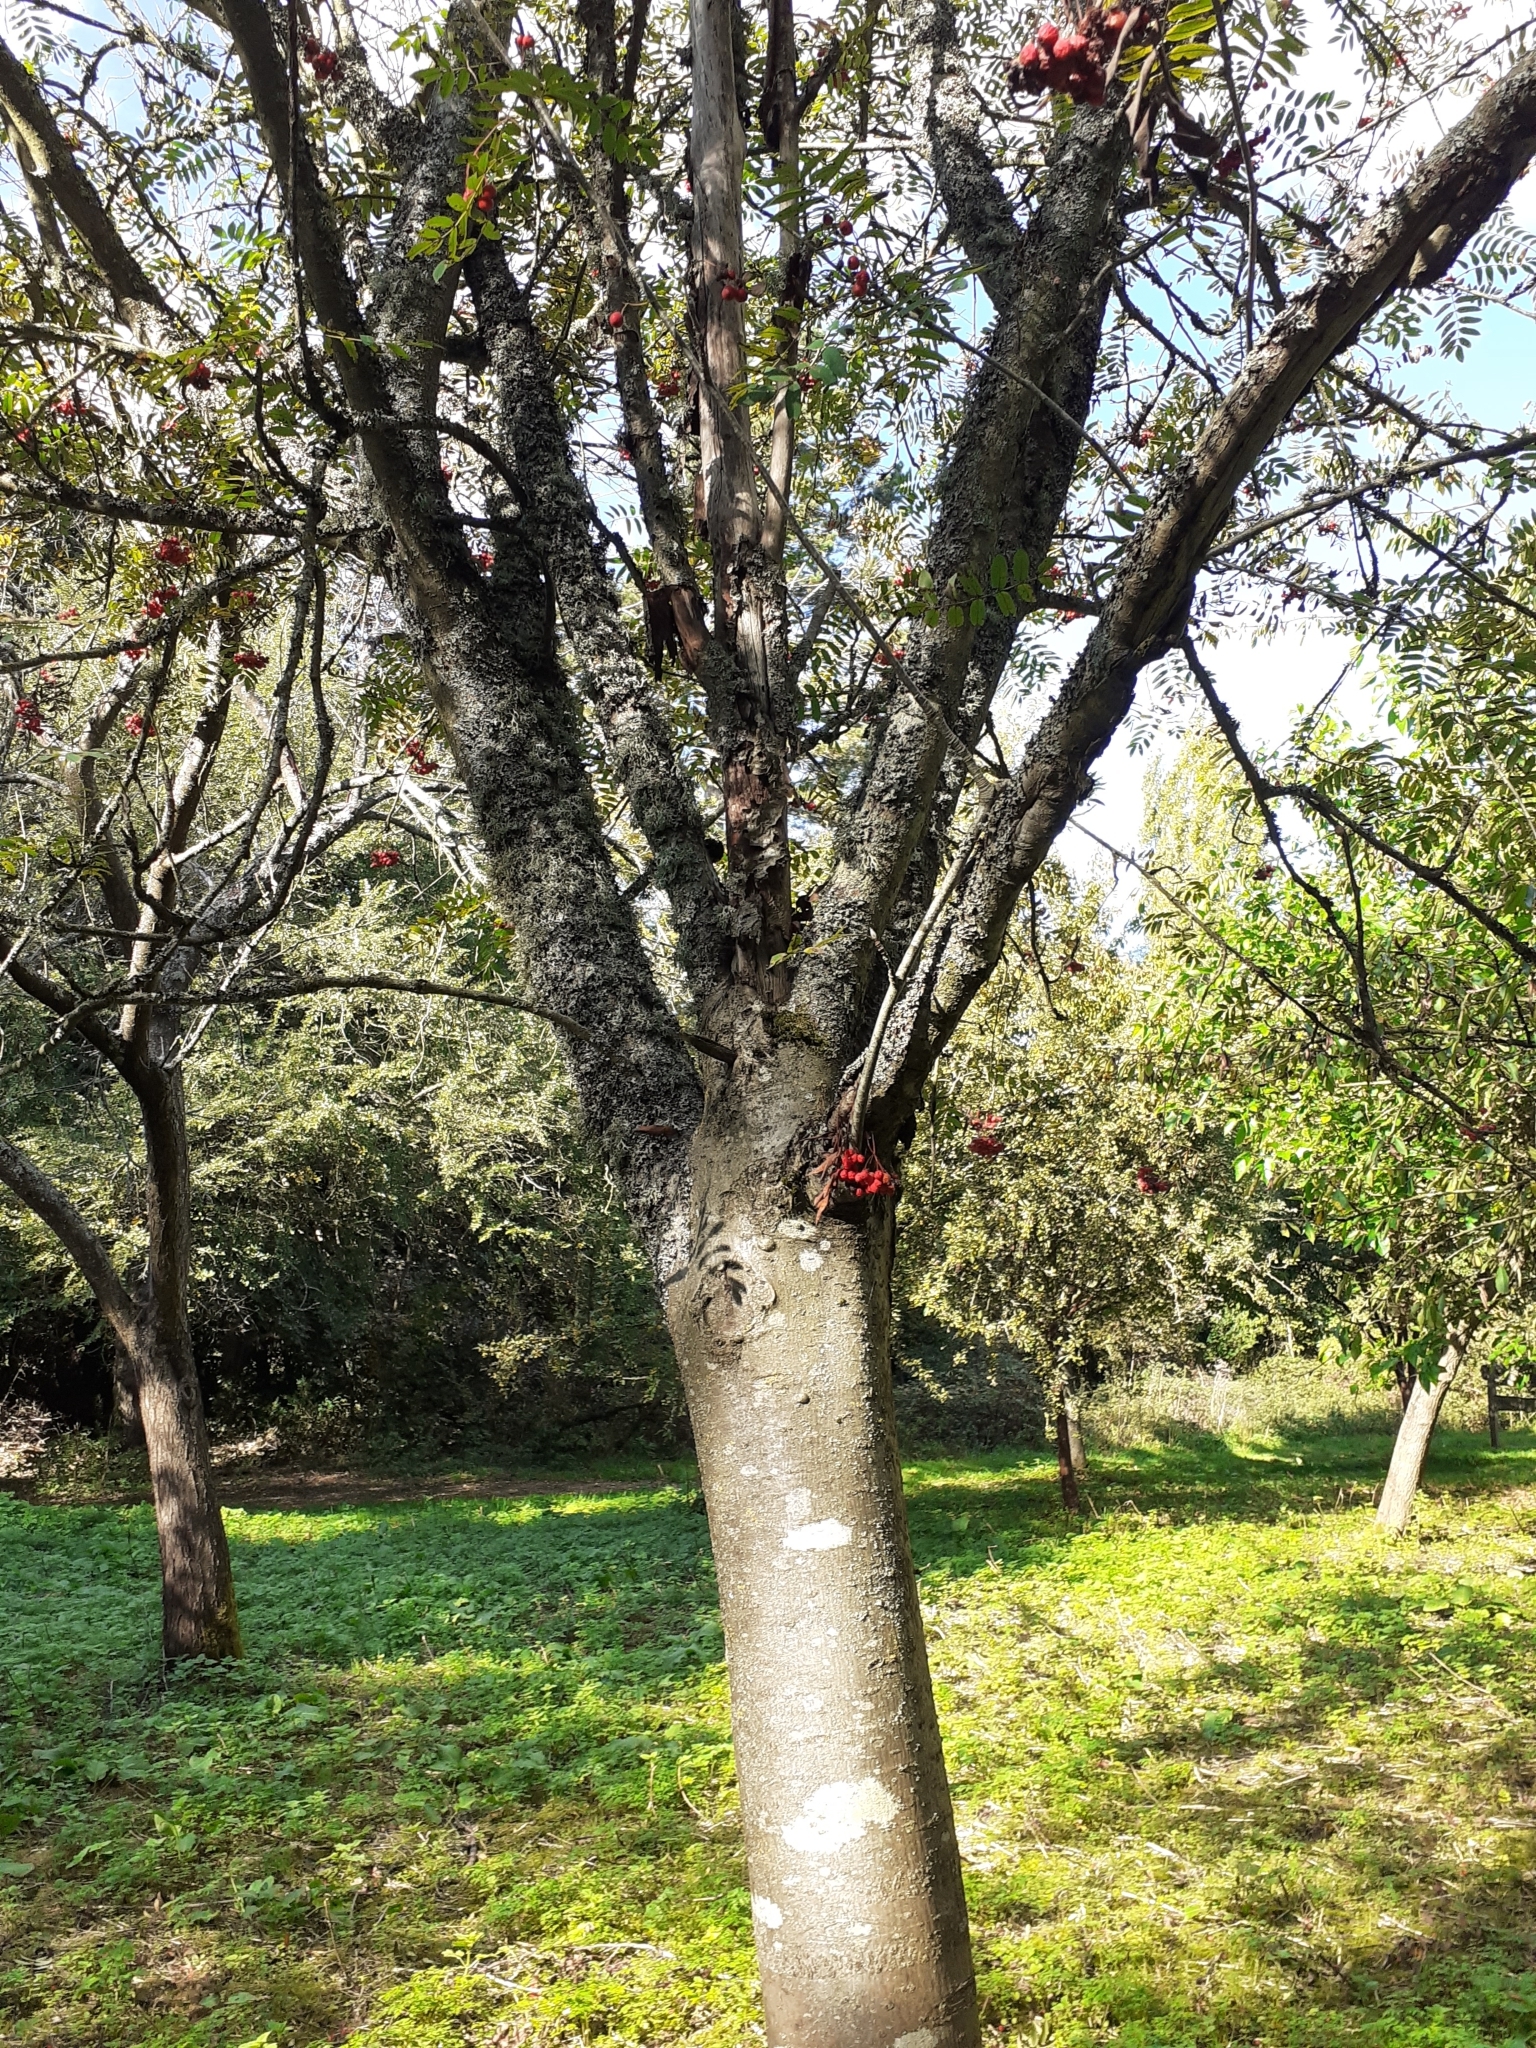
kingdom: Plantae
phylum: Tracheophyta
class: Magnoliopsida
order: Rosales
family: Rosaceae
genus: Sorbus
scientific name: Sorbus aucuparia
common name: Rowan
